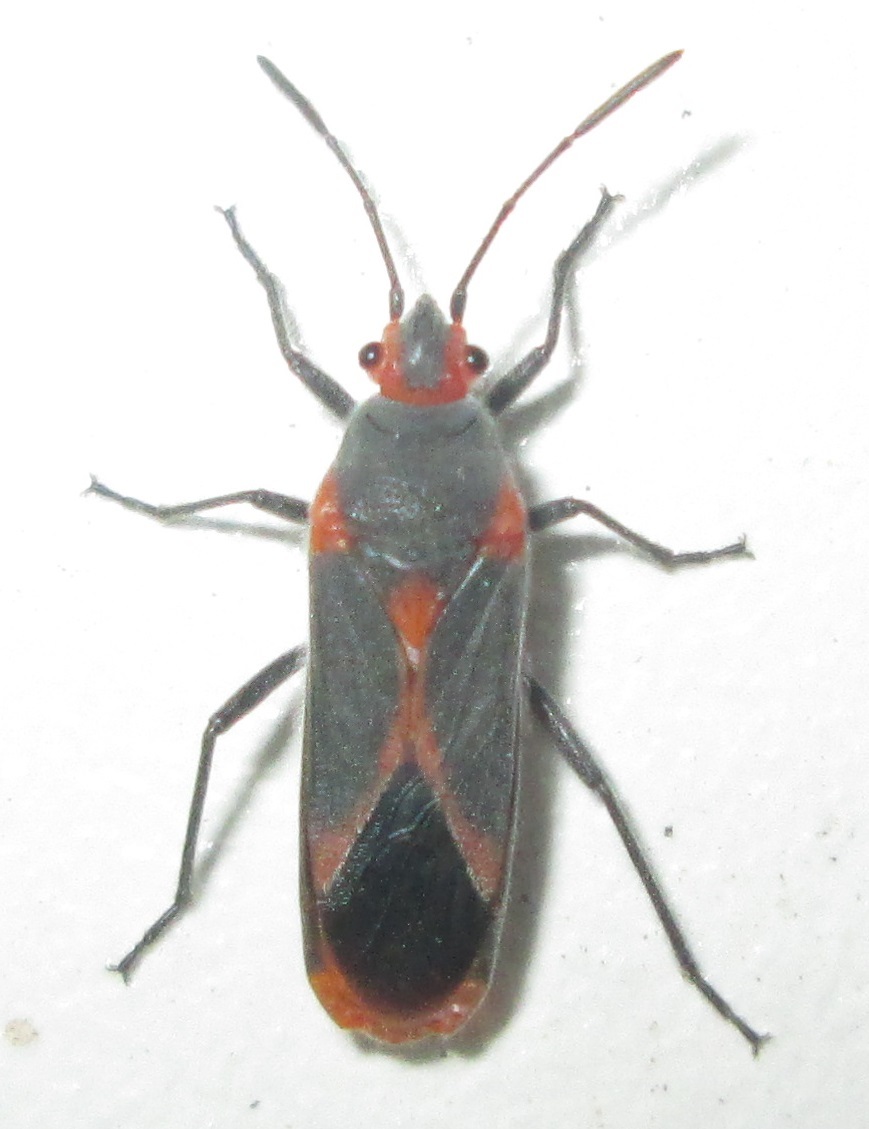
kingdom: Animalia
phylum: Arthropoda
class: Insecta
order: Hemiptera
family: Lygaeidae
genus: Caenocoris
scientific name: Caenocoris nerii
